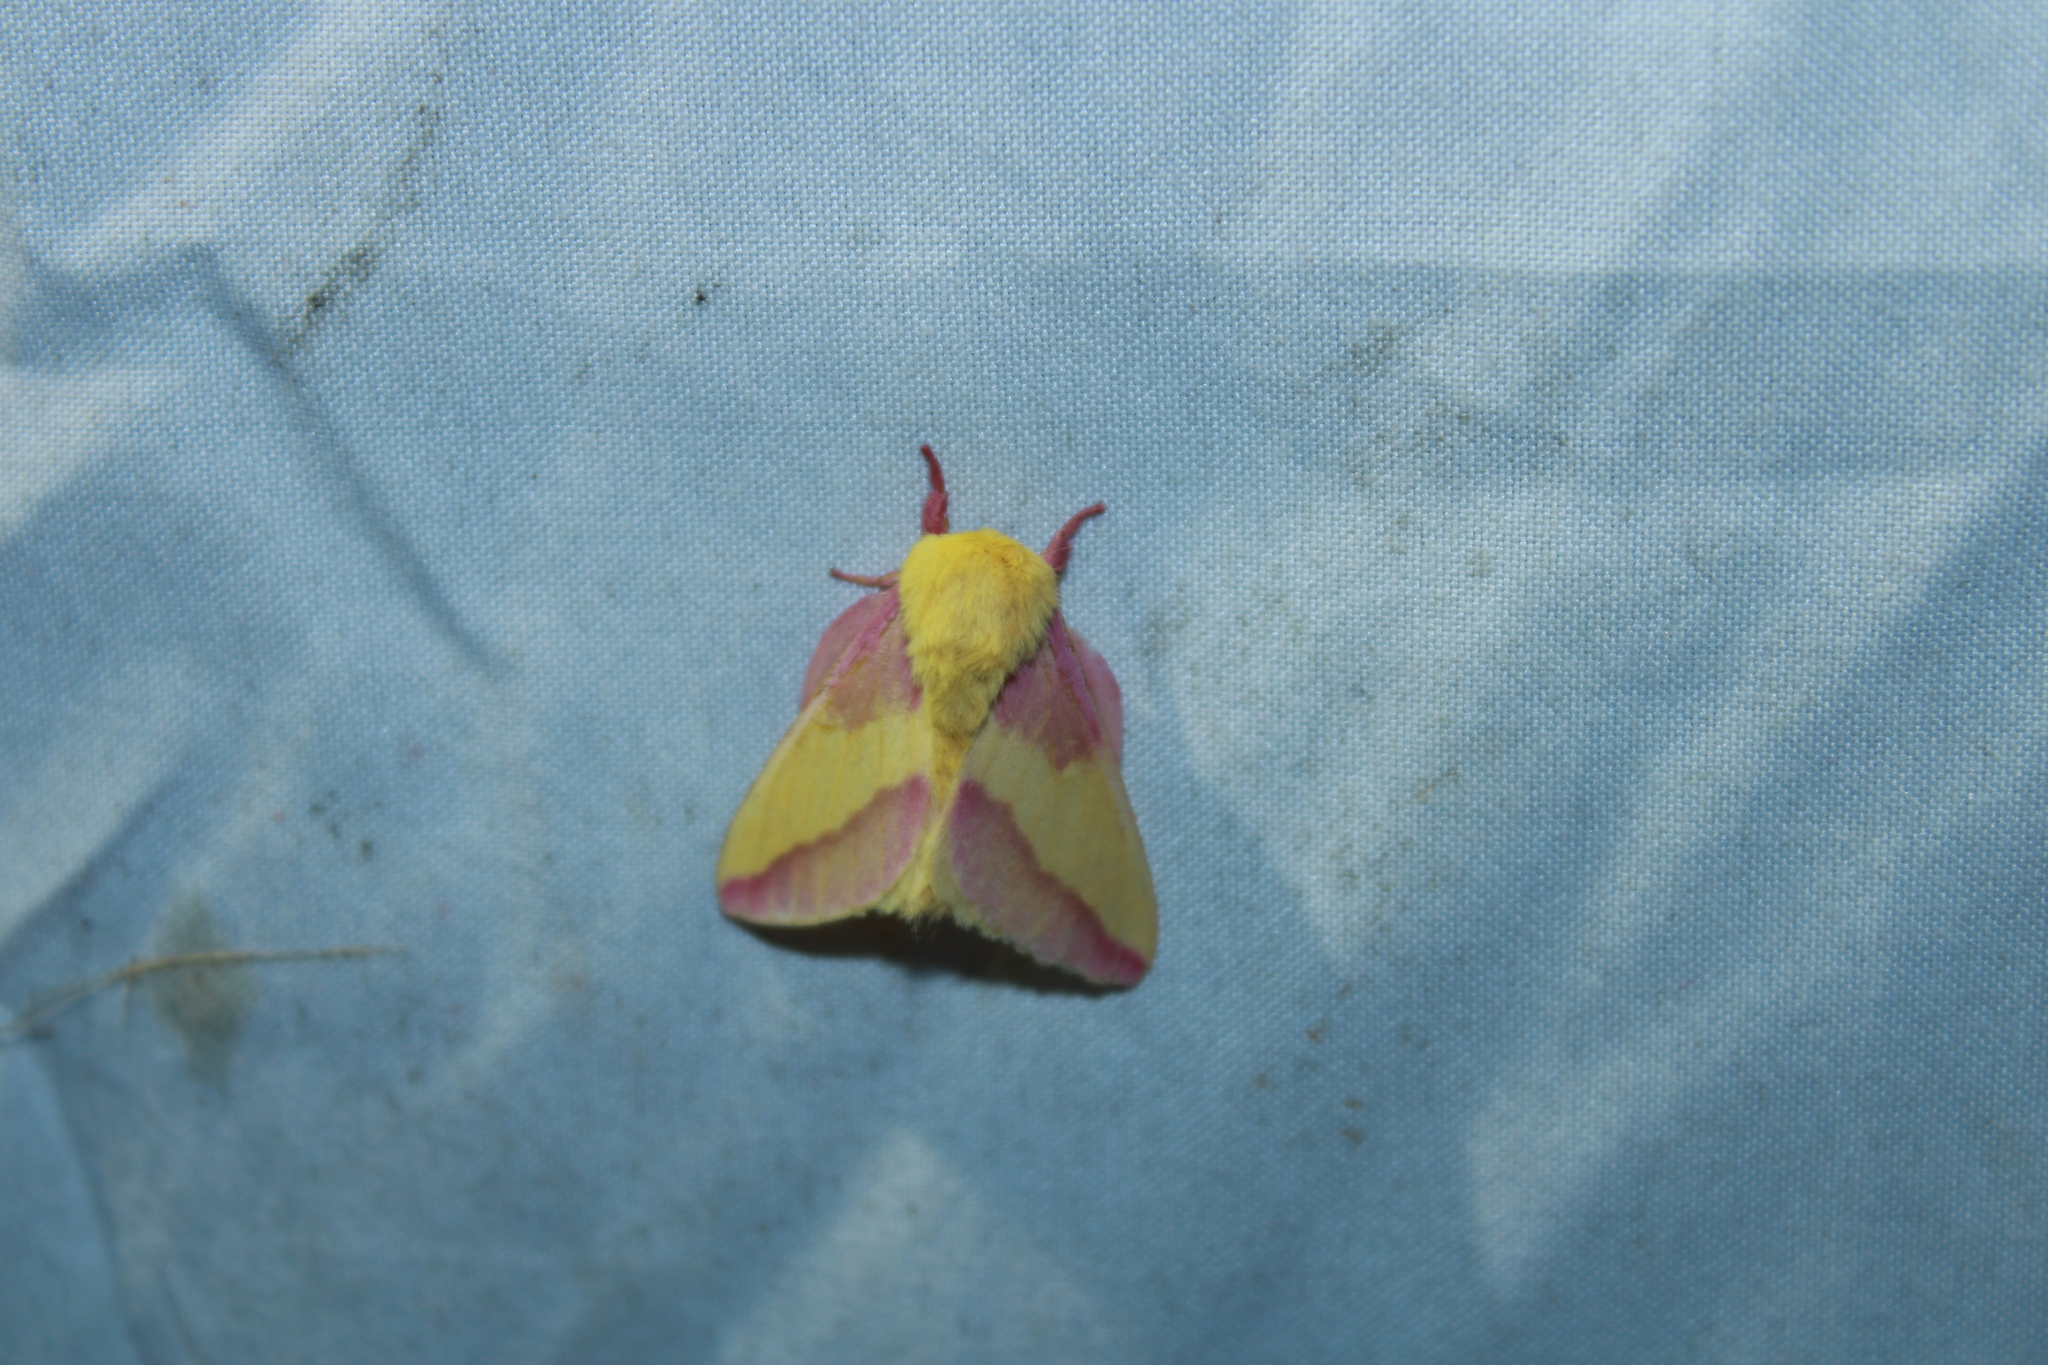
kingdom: Animalia
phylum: Arthropoda
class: Insecta
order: Lepidoptera
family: Saturniidae
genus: Dryocampa
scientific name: Dryocampa rubicunda
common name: Rosy maple moth
